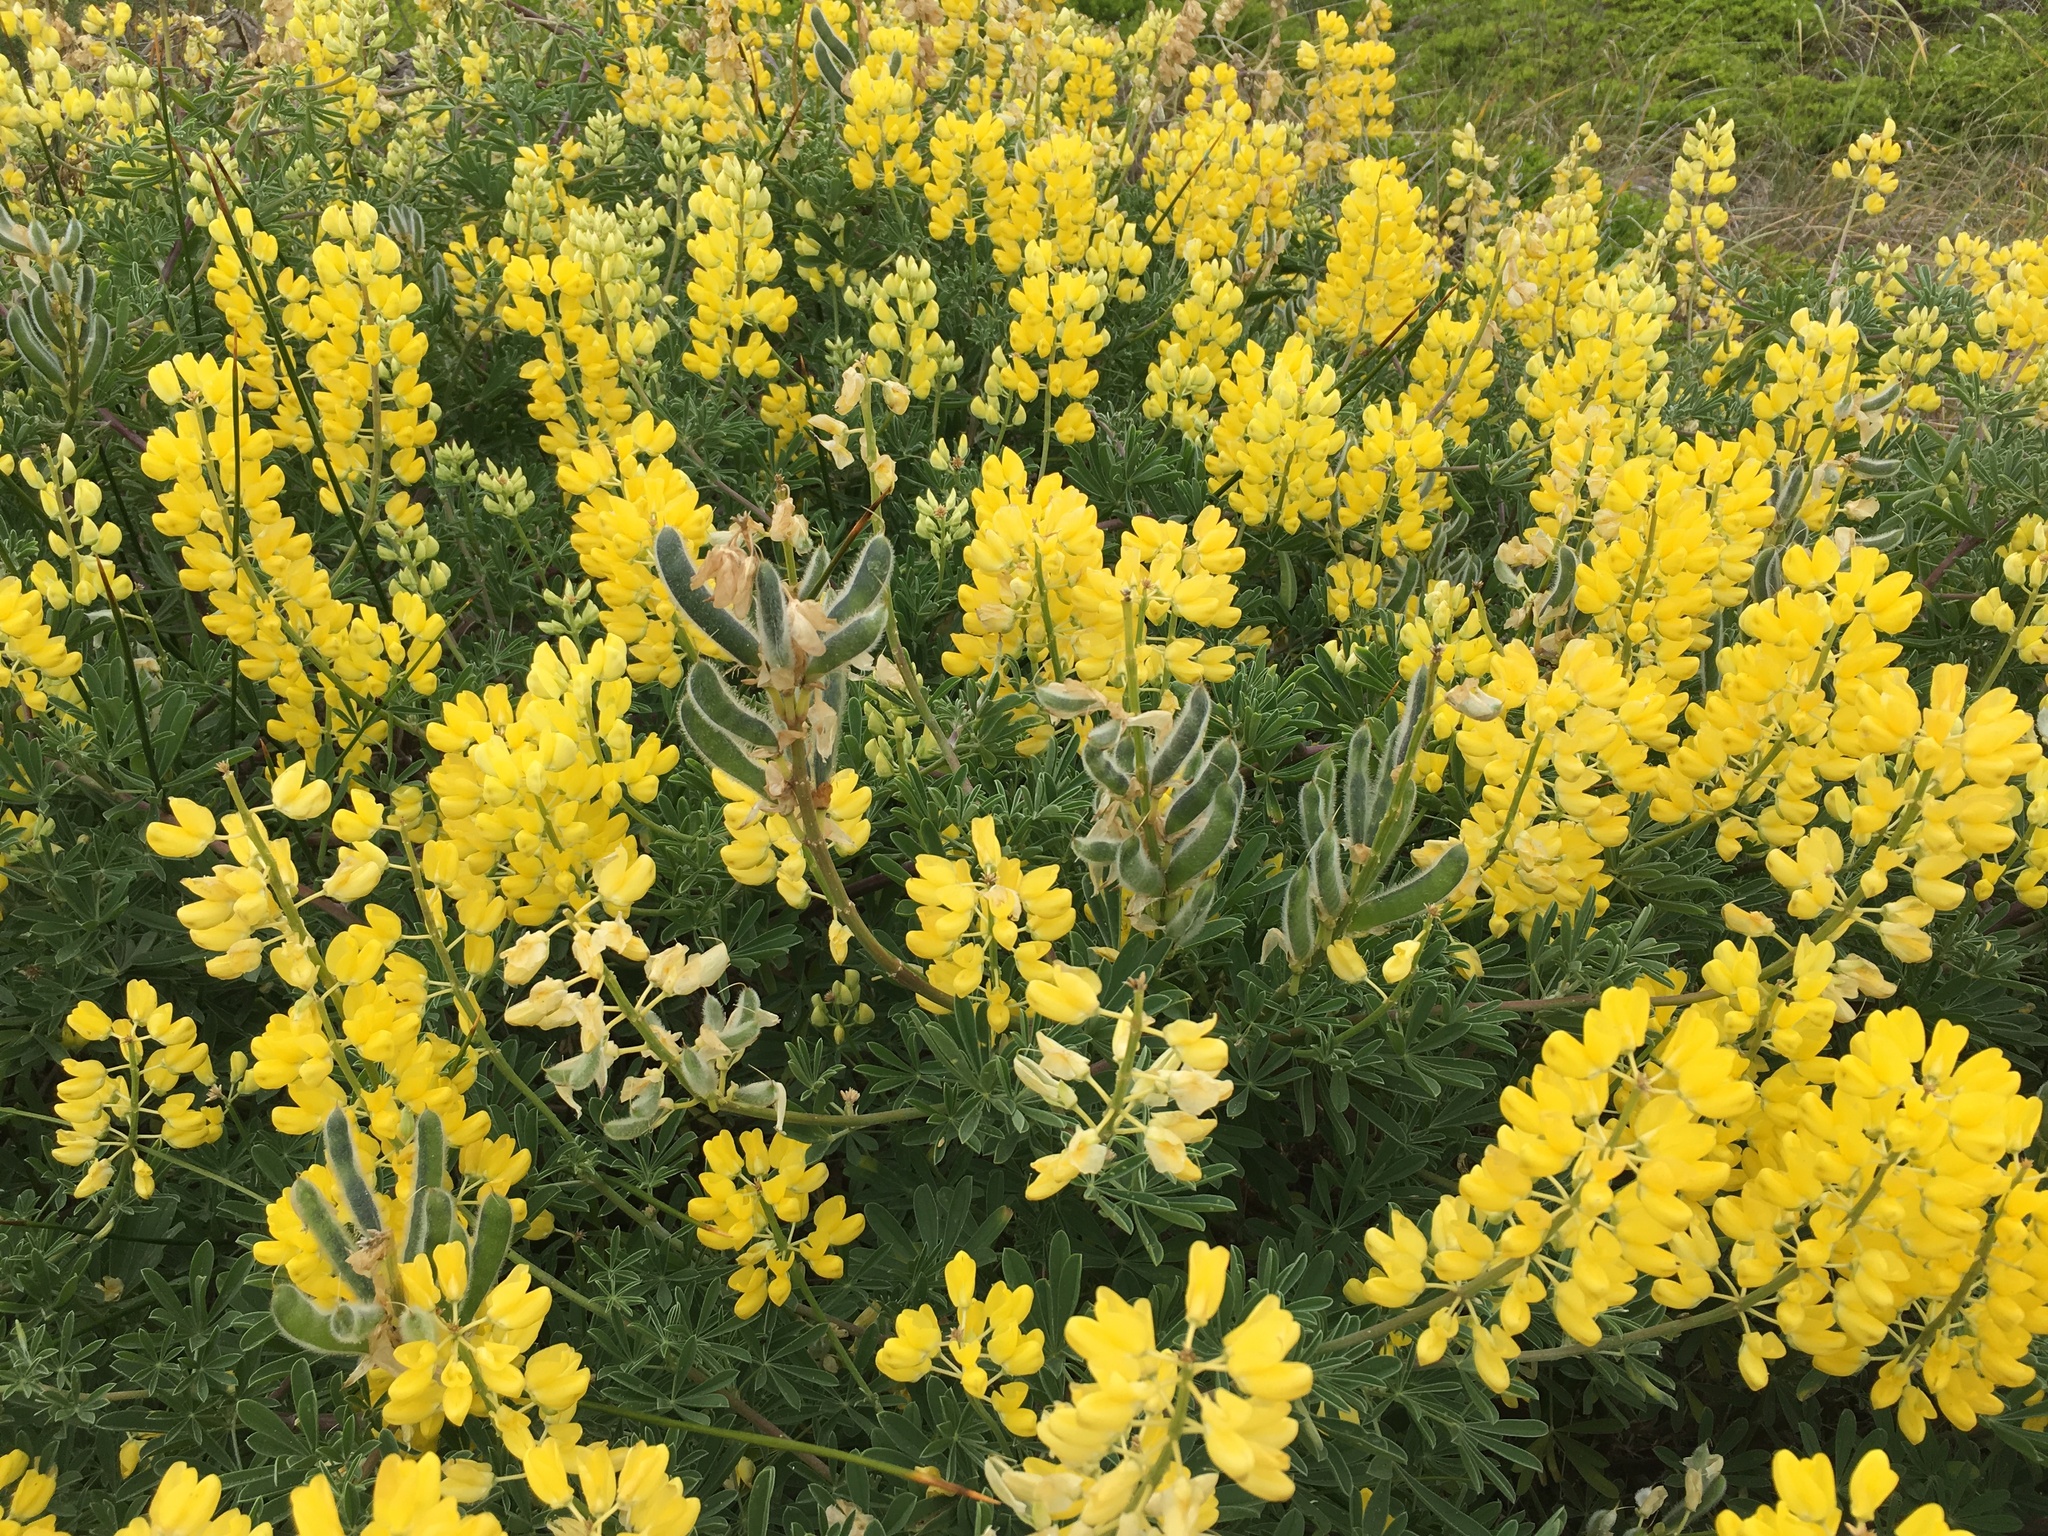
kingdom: Plantae
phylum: Tracheophyta
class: Magnoliopsida
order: Fabales
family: Fabaceae
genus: Lupinus
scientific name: Lupinus arboreus
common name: Yellow bush lupine
